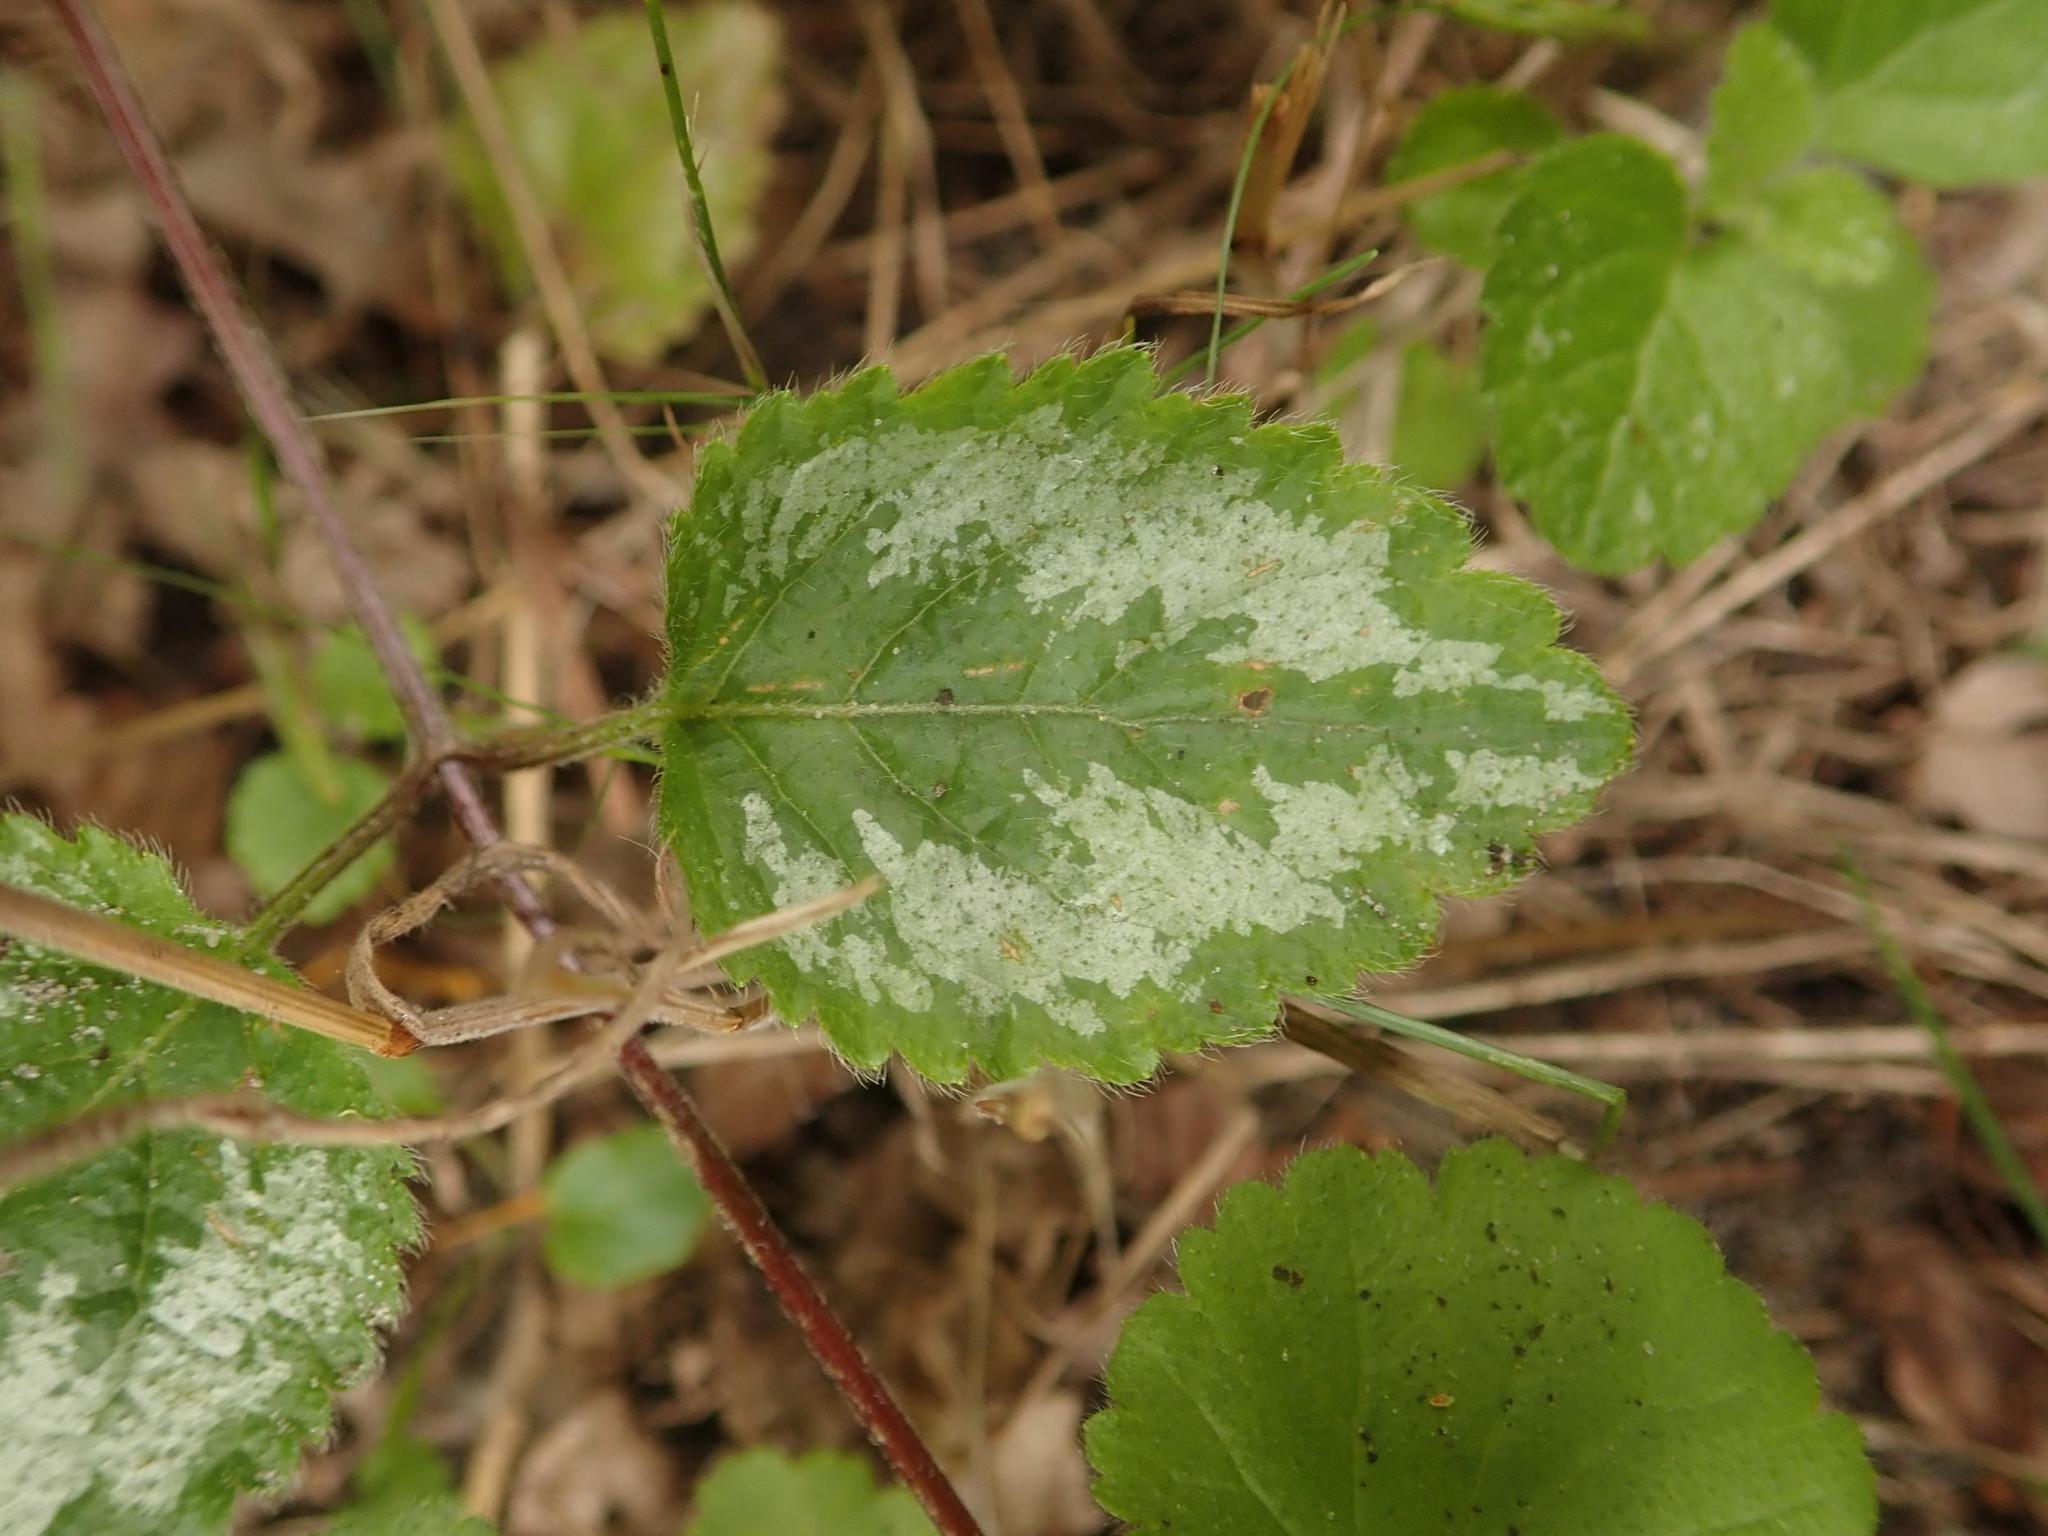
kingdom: Plantae
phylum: Tracheophyta
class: Magnoliopsida
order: Lamiales
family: Lamiaceae
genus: Lamium
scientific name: Lamium galeobdolon
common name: Yellow archangel
